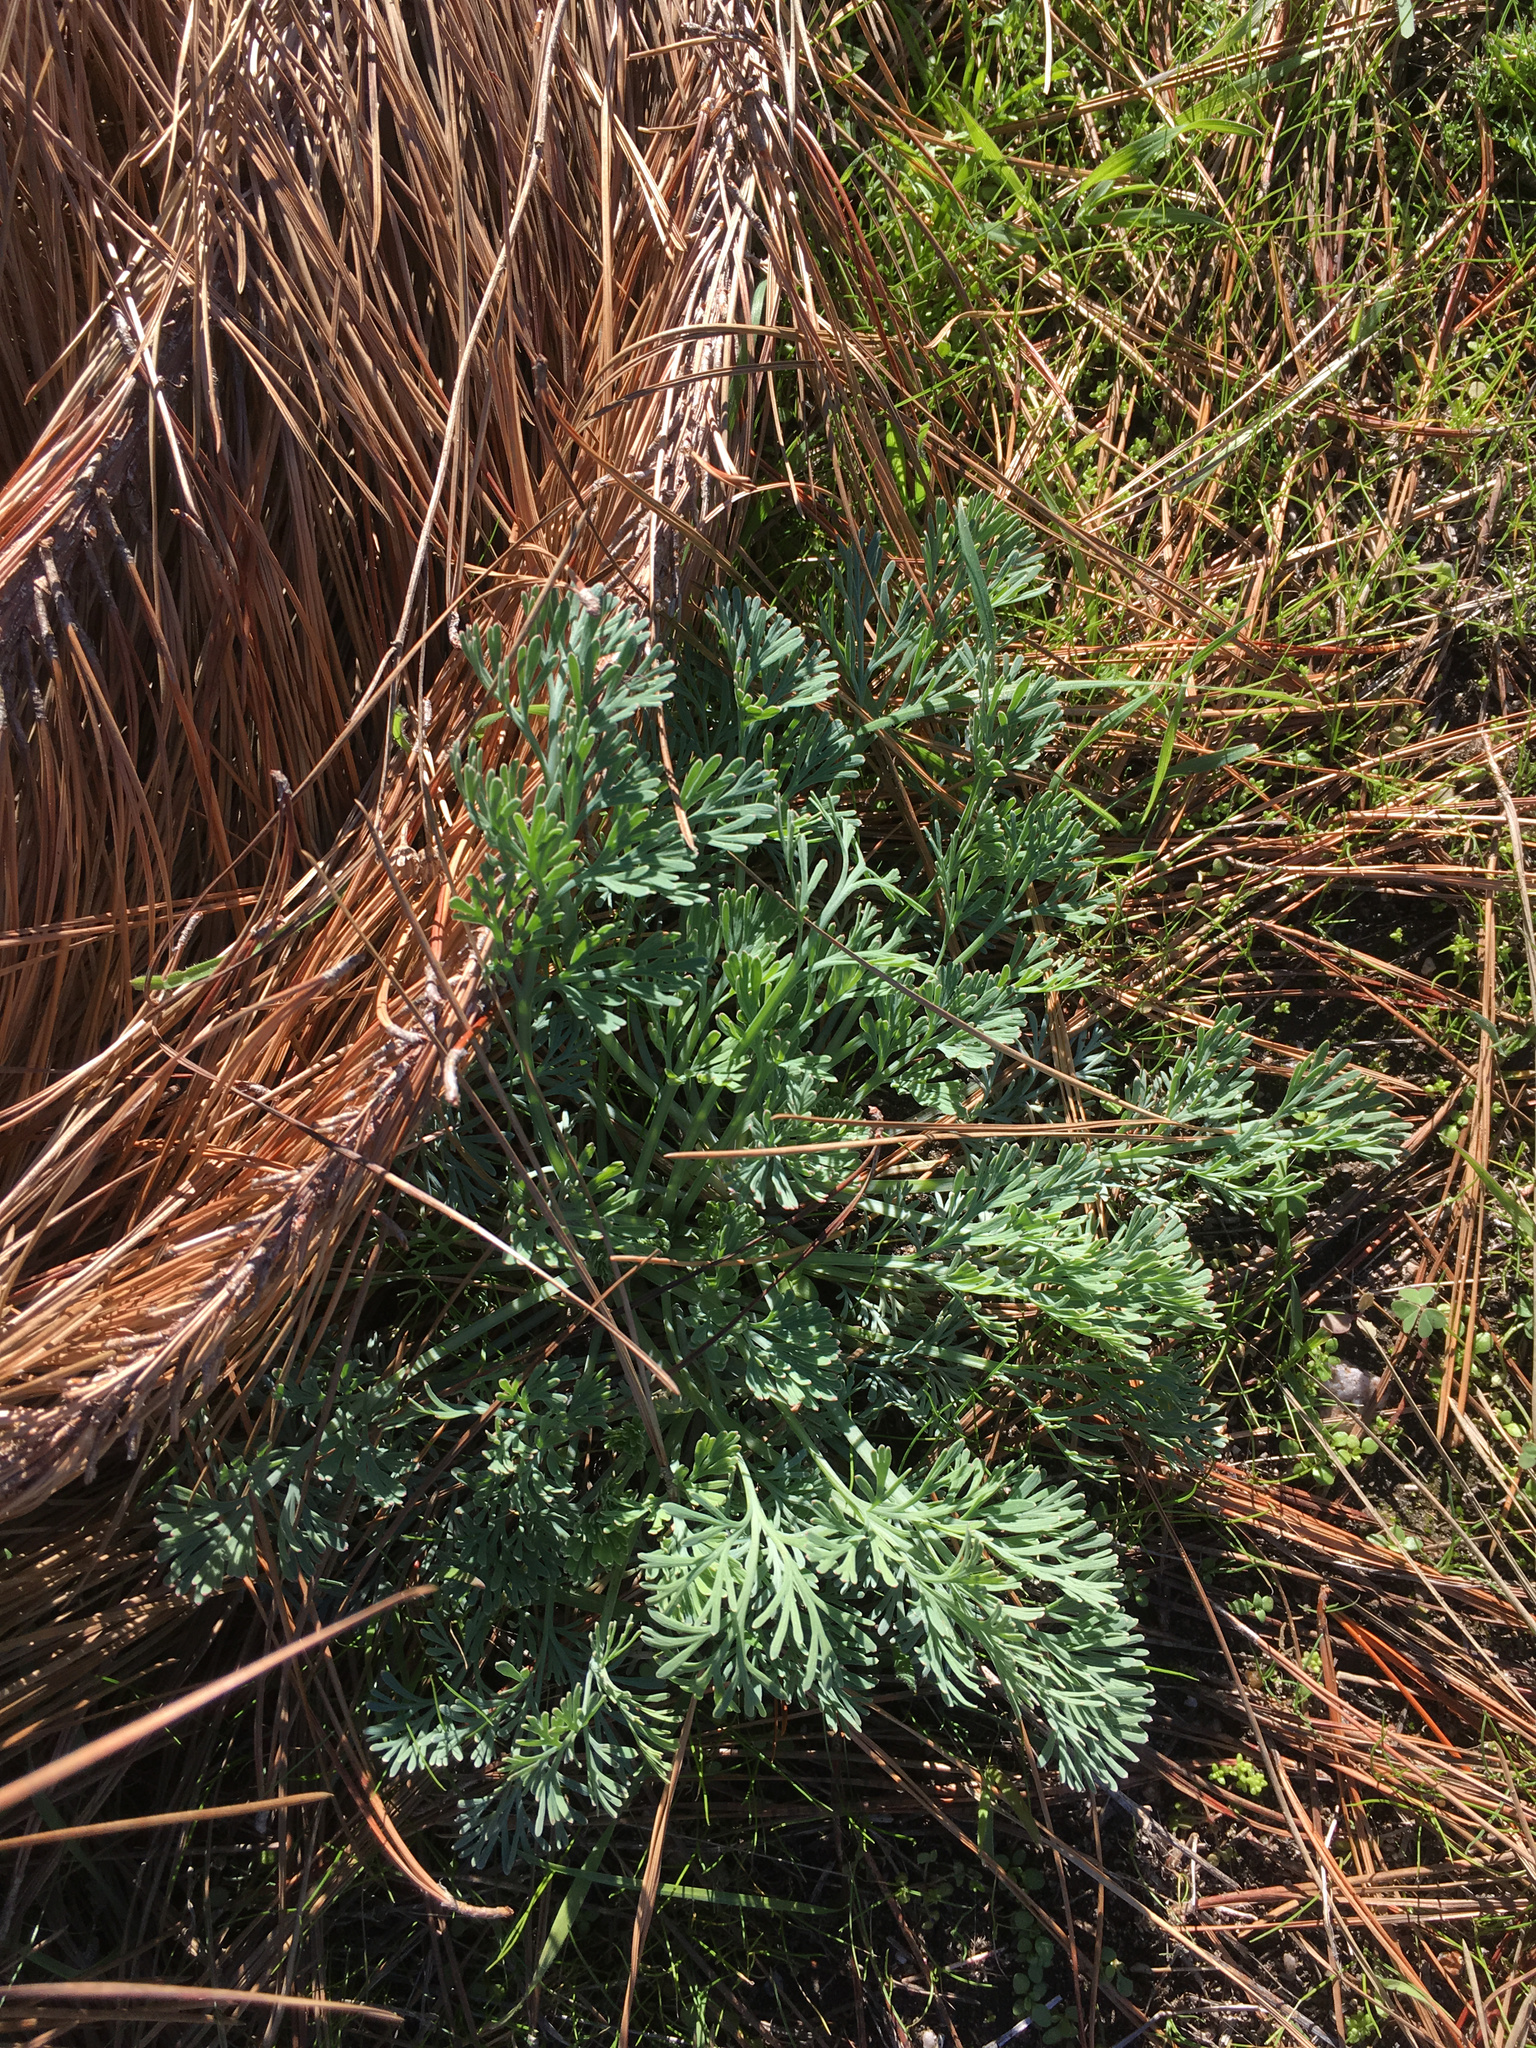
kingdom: Plantae
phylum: Tracheophyta
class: Magnoliopsida
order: Ranunculales
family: Papaveraceae
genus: Eschscholzia
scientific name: Eschscholzia californica
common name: California poppy
